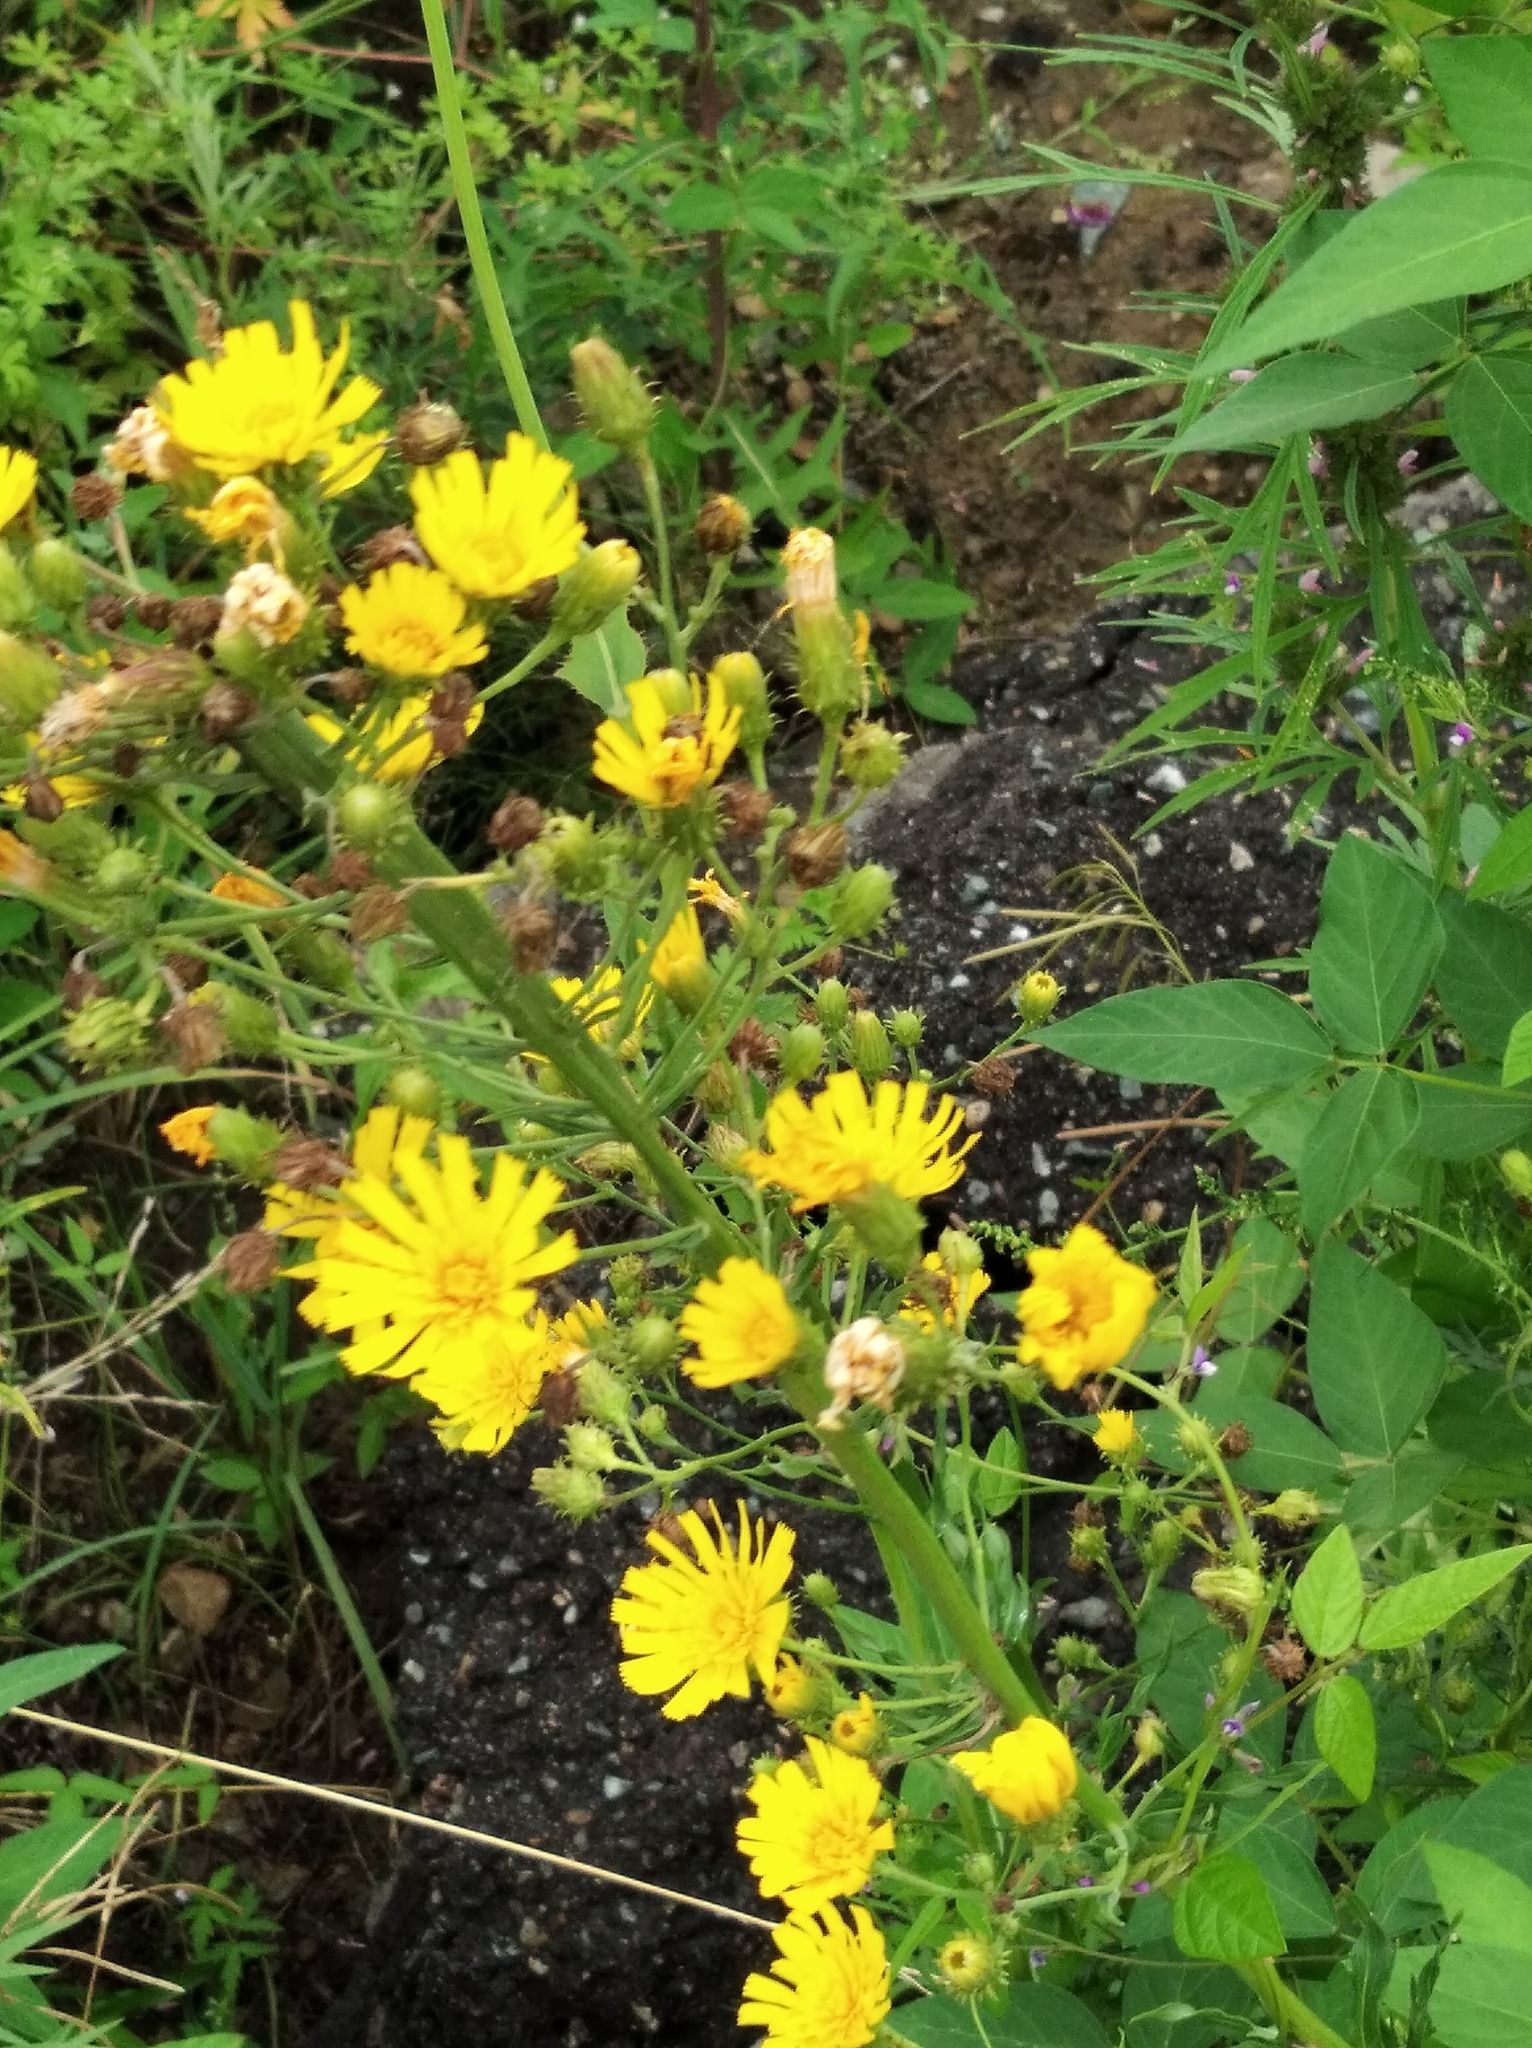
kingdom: Plantae
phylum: Tracheophyta
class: Magnoliopsida
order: Asterales
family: Asteraceae
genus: Hieracium
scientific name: Hieracium umbellatum
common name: Northern hawkweed
